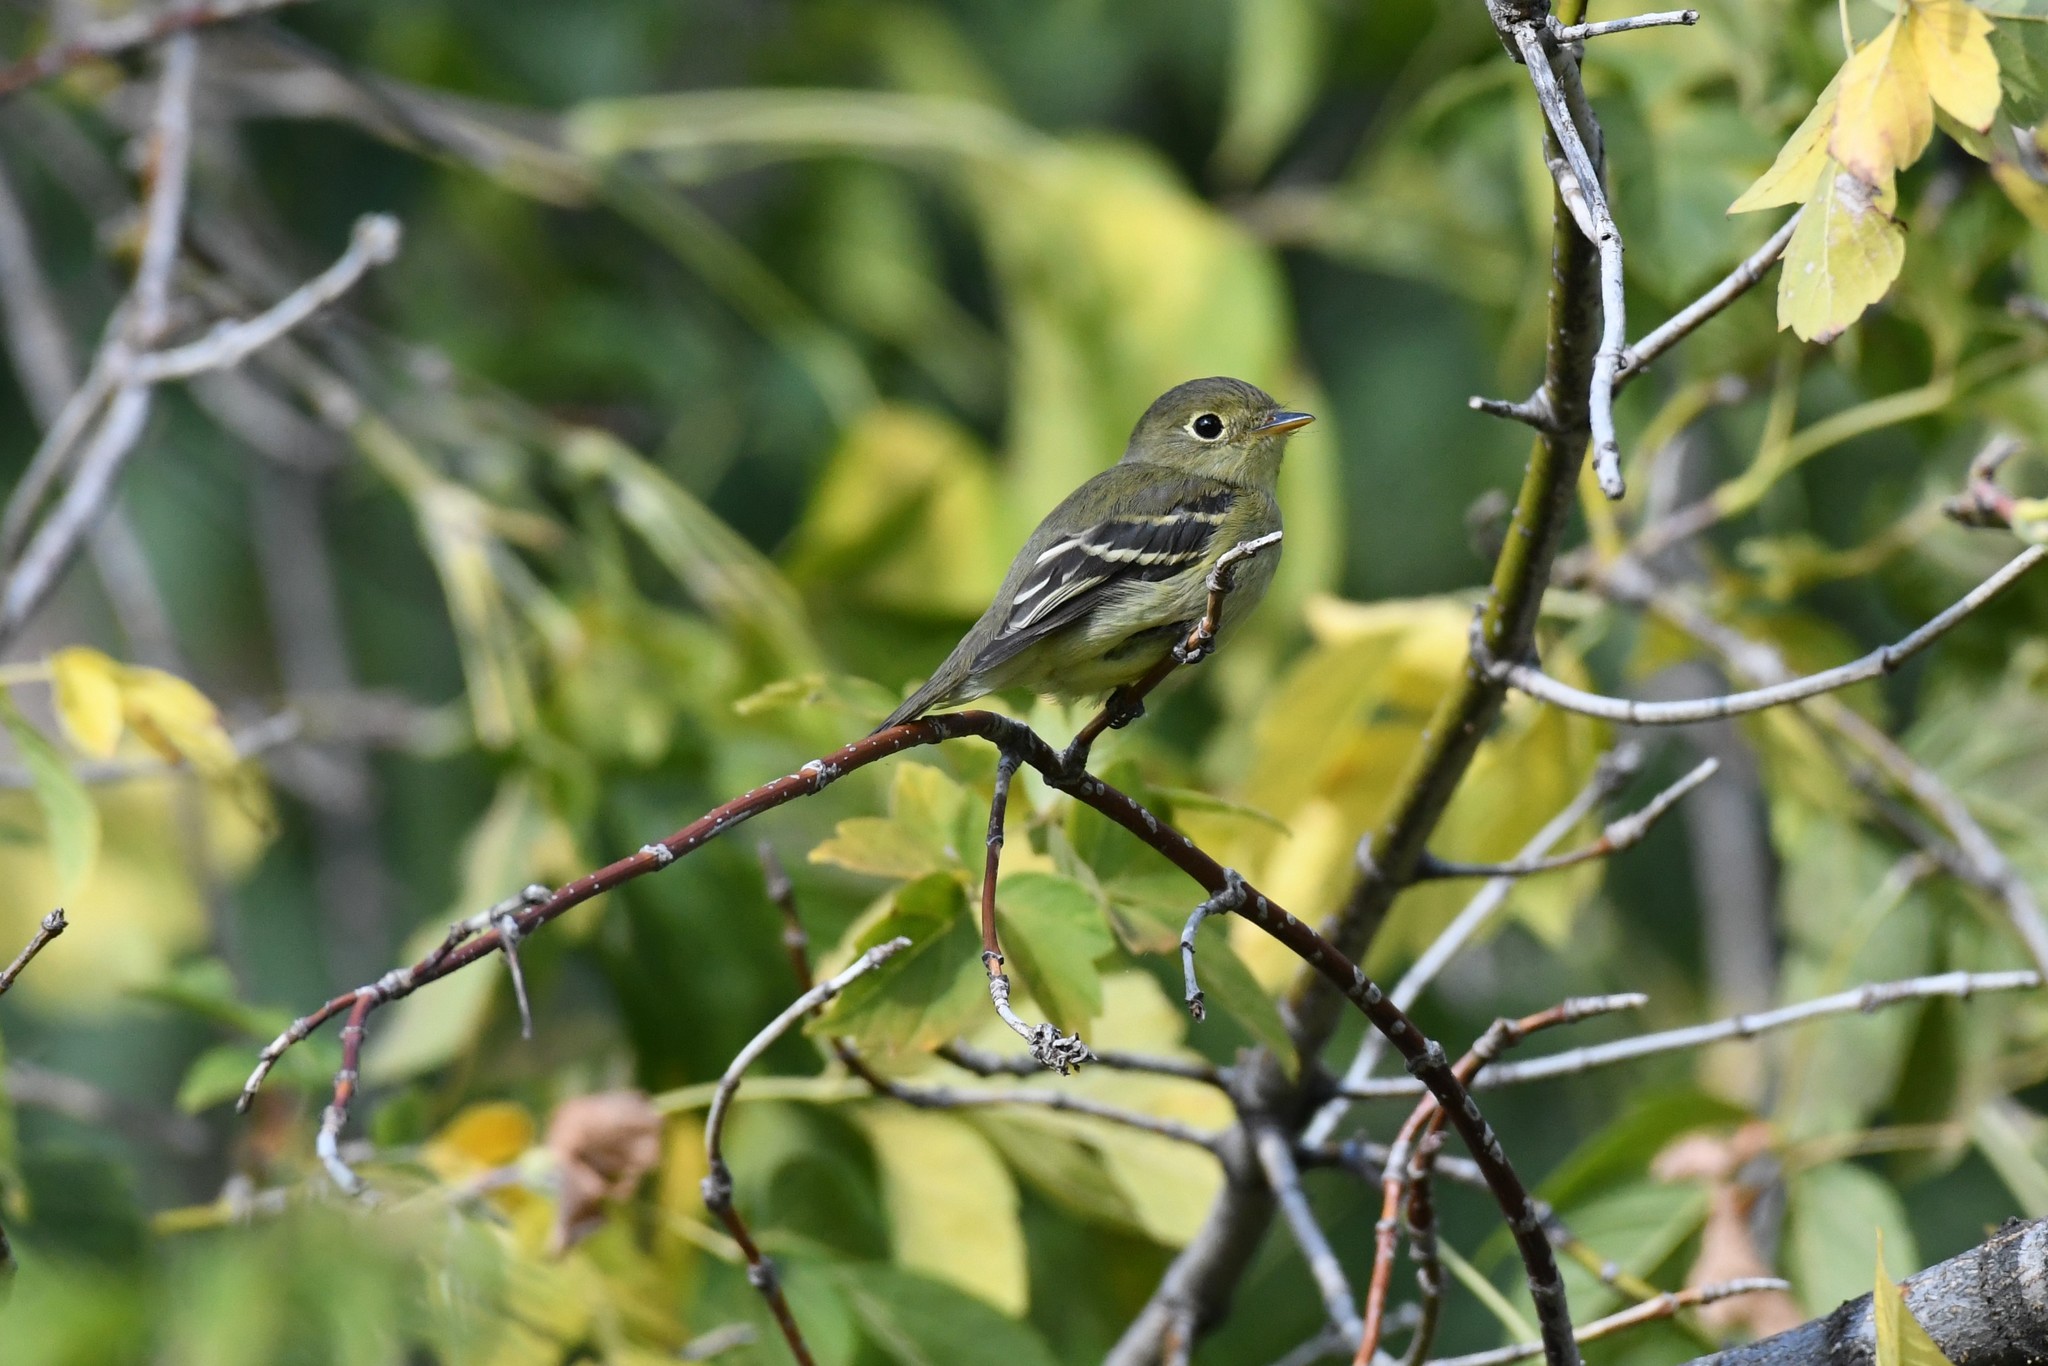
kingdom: Animalia
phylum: Chordata
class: Aves
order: Passeriformes
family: Tyrannidae
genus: Empidonax
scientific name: Empidonax flaviventris
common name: Yellow-bellied flycatcher
